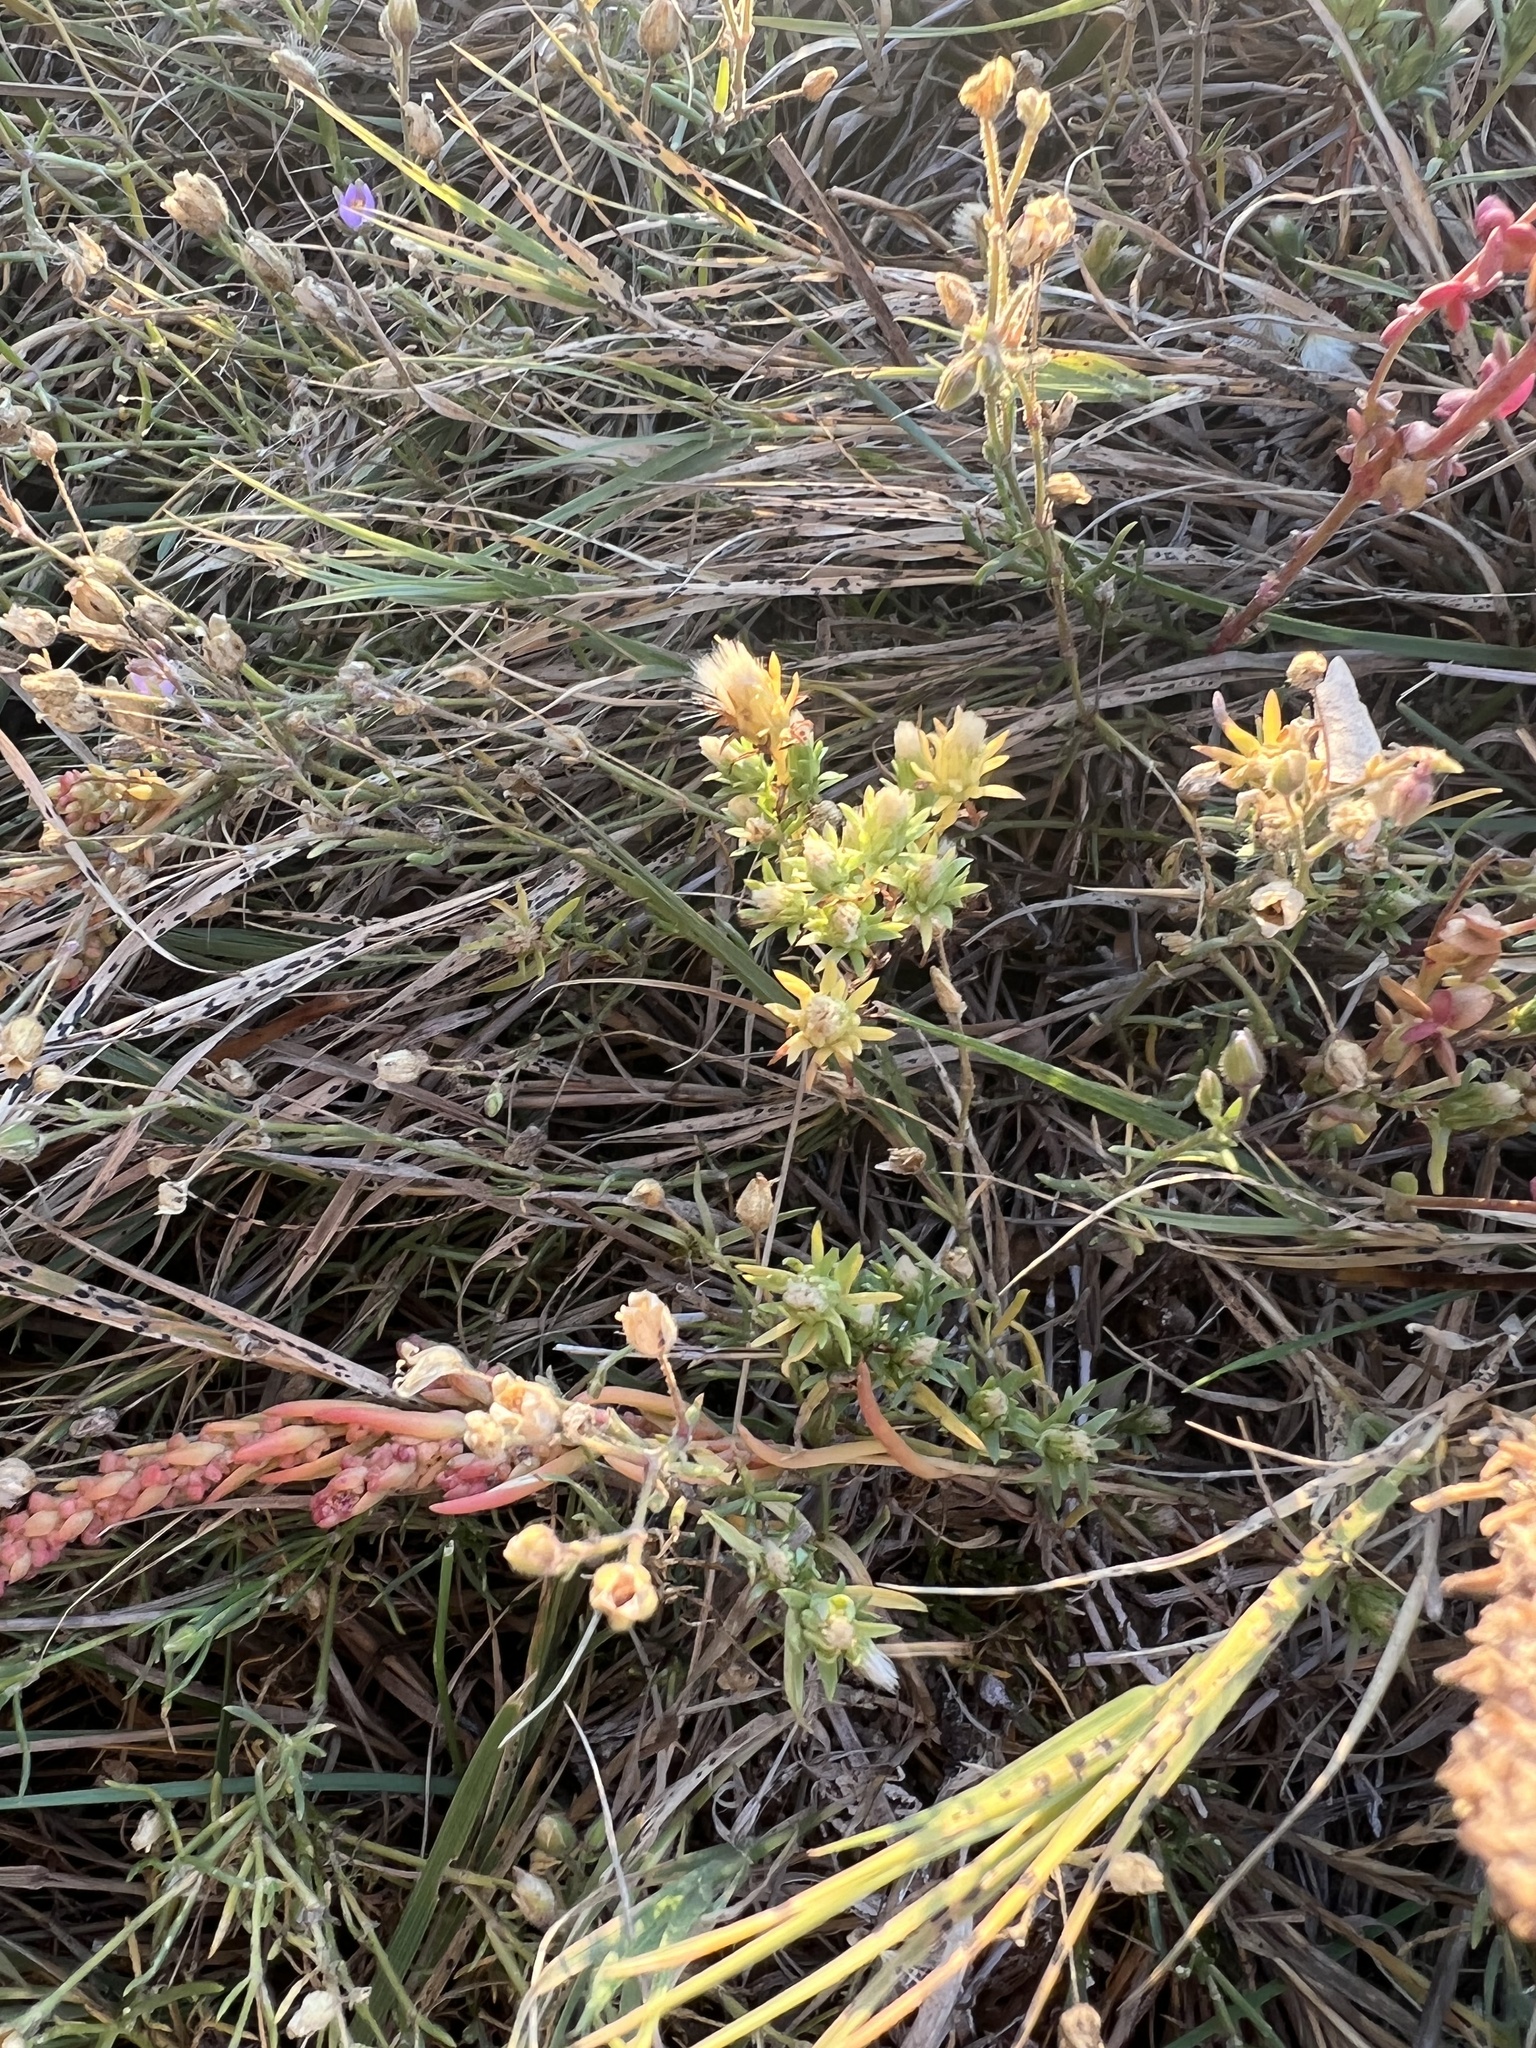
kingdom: Plantae
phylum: Tracheophyta
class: Magnoliopsida
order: Asterales
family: Asteraceae
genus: Symphyotrichum
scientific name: Symphyotrichum ciliatum
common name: Rayless annual aster
